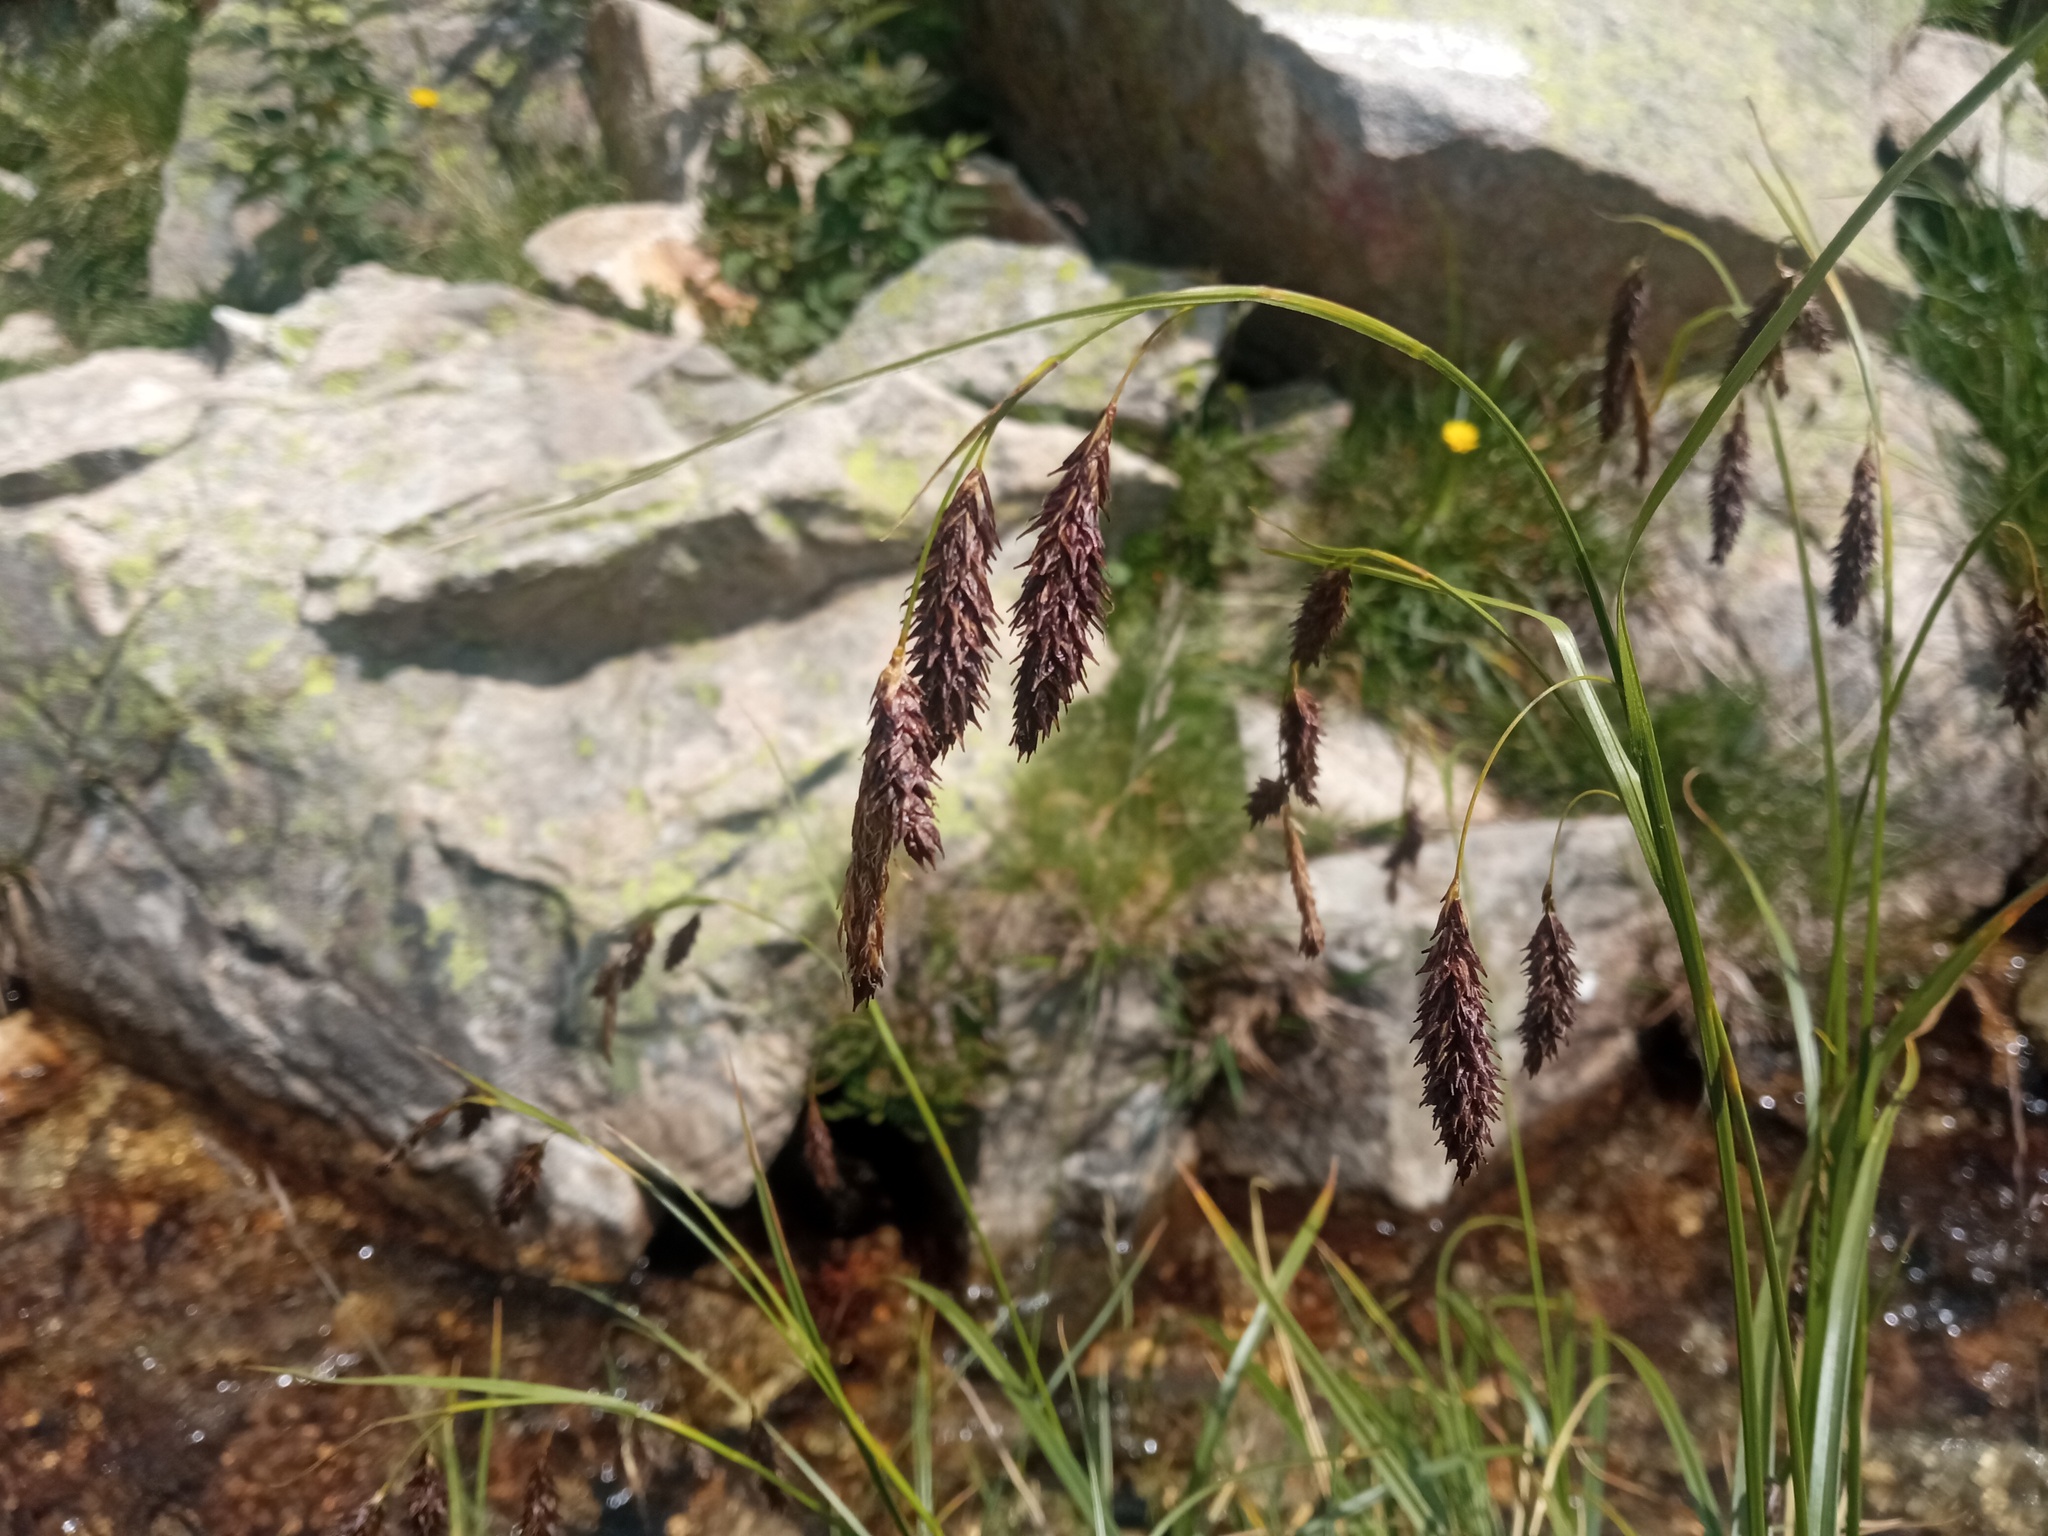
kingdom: Plantae
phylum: Tracheophyta
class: Liliopsida
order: Poales
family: Cyperaceae
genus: Carex
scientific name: Carex frigida
